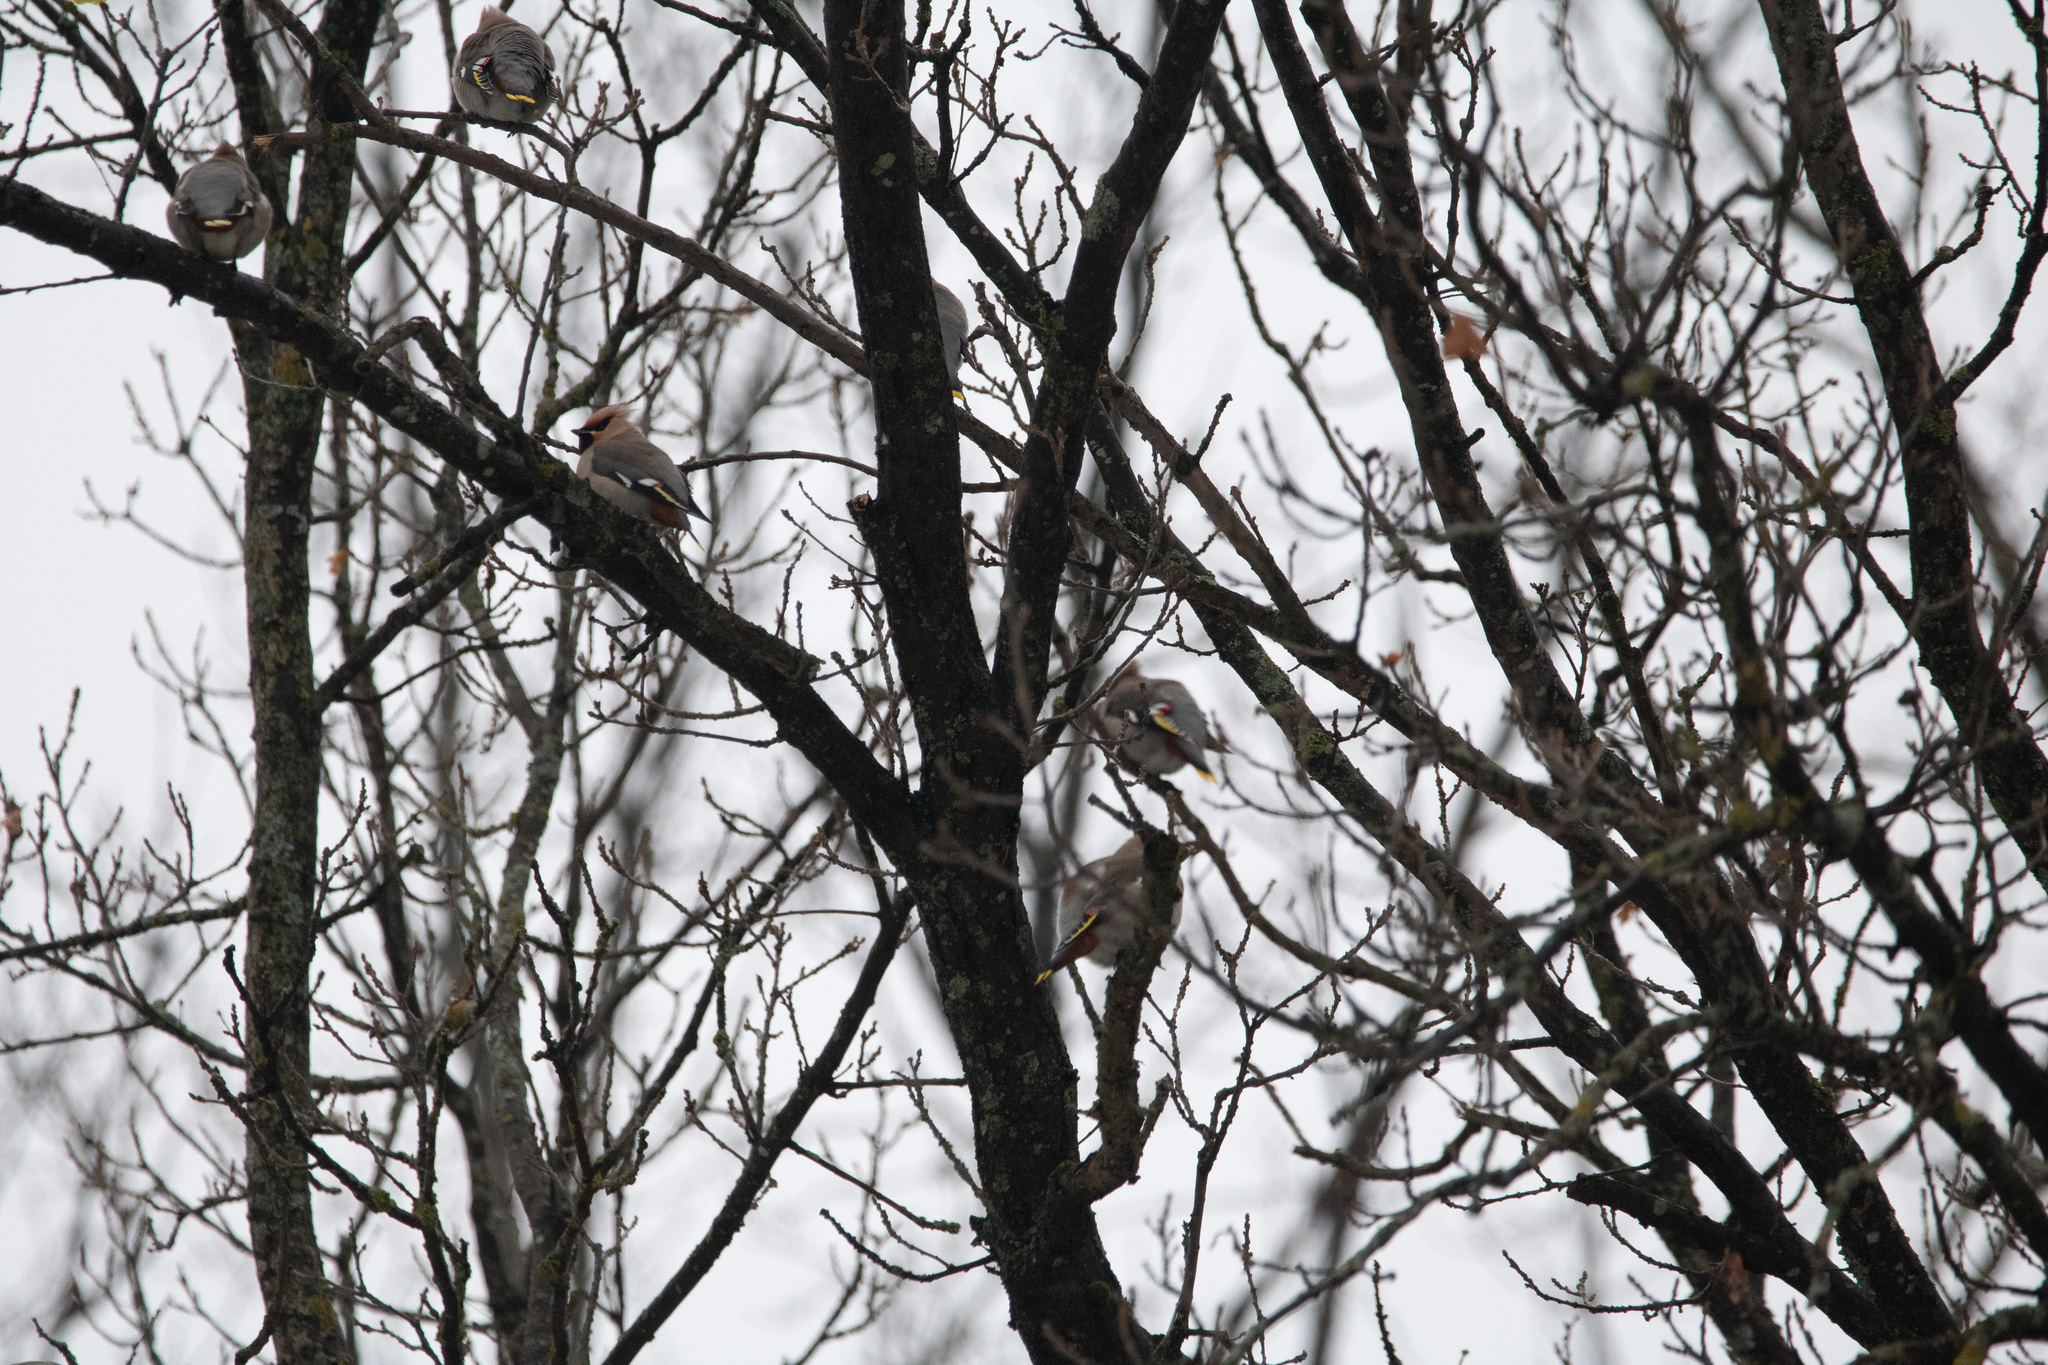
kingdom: Animalia
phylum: Chordata
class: Aves
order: Passeriformes
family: Bombycillidae
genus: Bombycilla
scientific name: Bombycilla garrulus
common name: Bohemian waxwing
